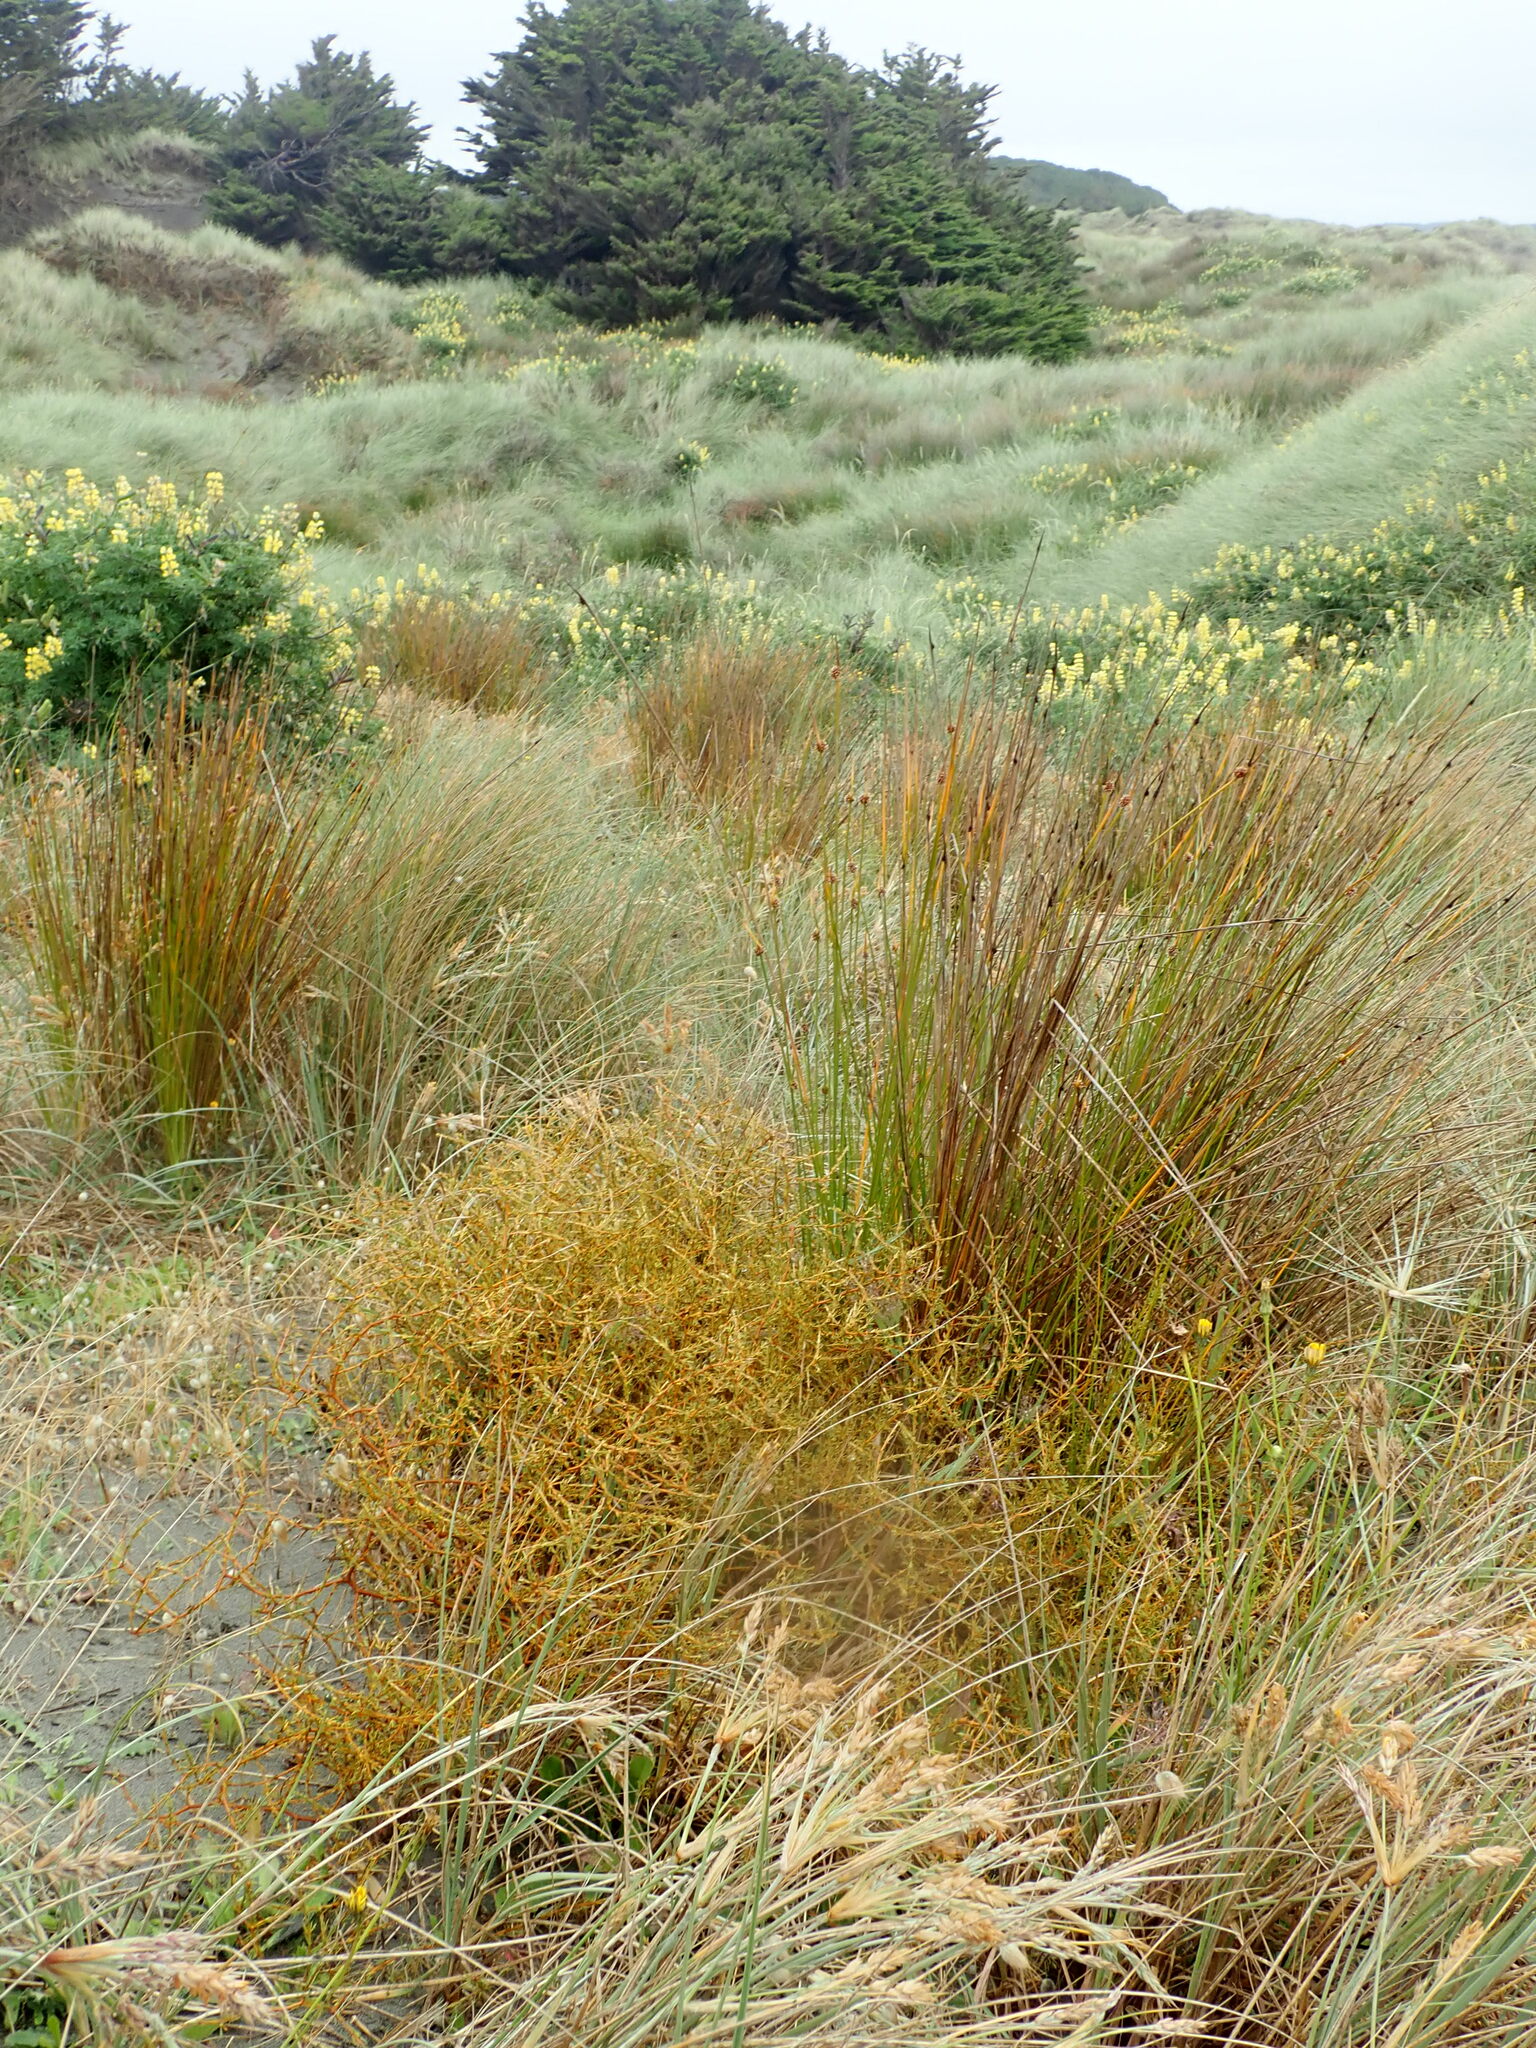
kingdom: Plantae
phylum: Tracheophyta
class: Magnoliopsida
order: Gentianales
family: Rubiaceae
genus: Coprosma
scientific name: Coprosma acerosa
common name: Sand coprosma
